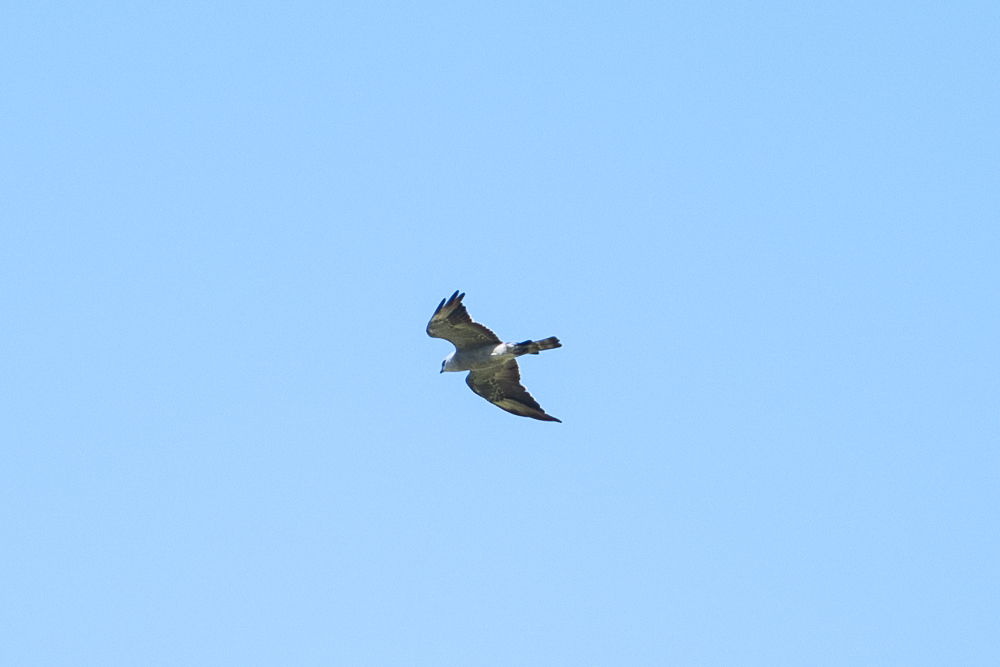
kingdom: Animalia
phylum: Chordata
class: Aves
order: Accipitriformes
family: Accipitridae
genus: Ictinia
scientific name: Ictinia mississippiensis
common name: Mississippi kite
